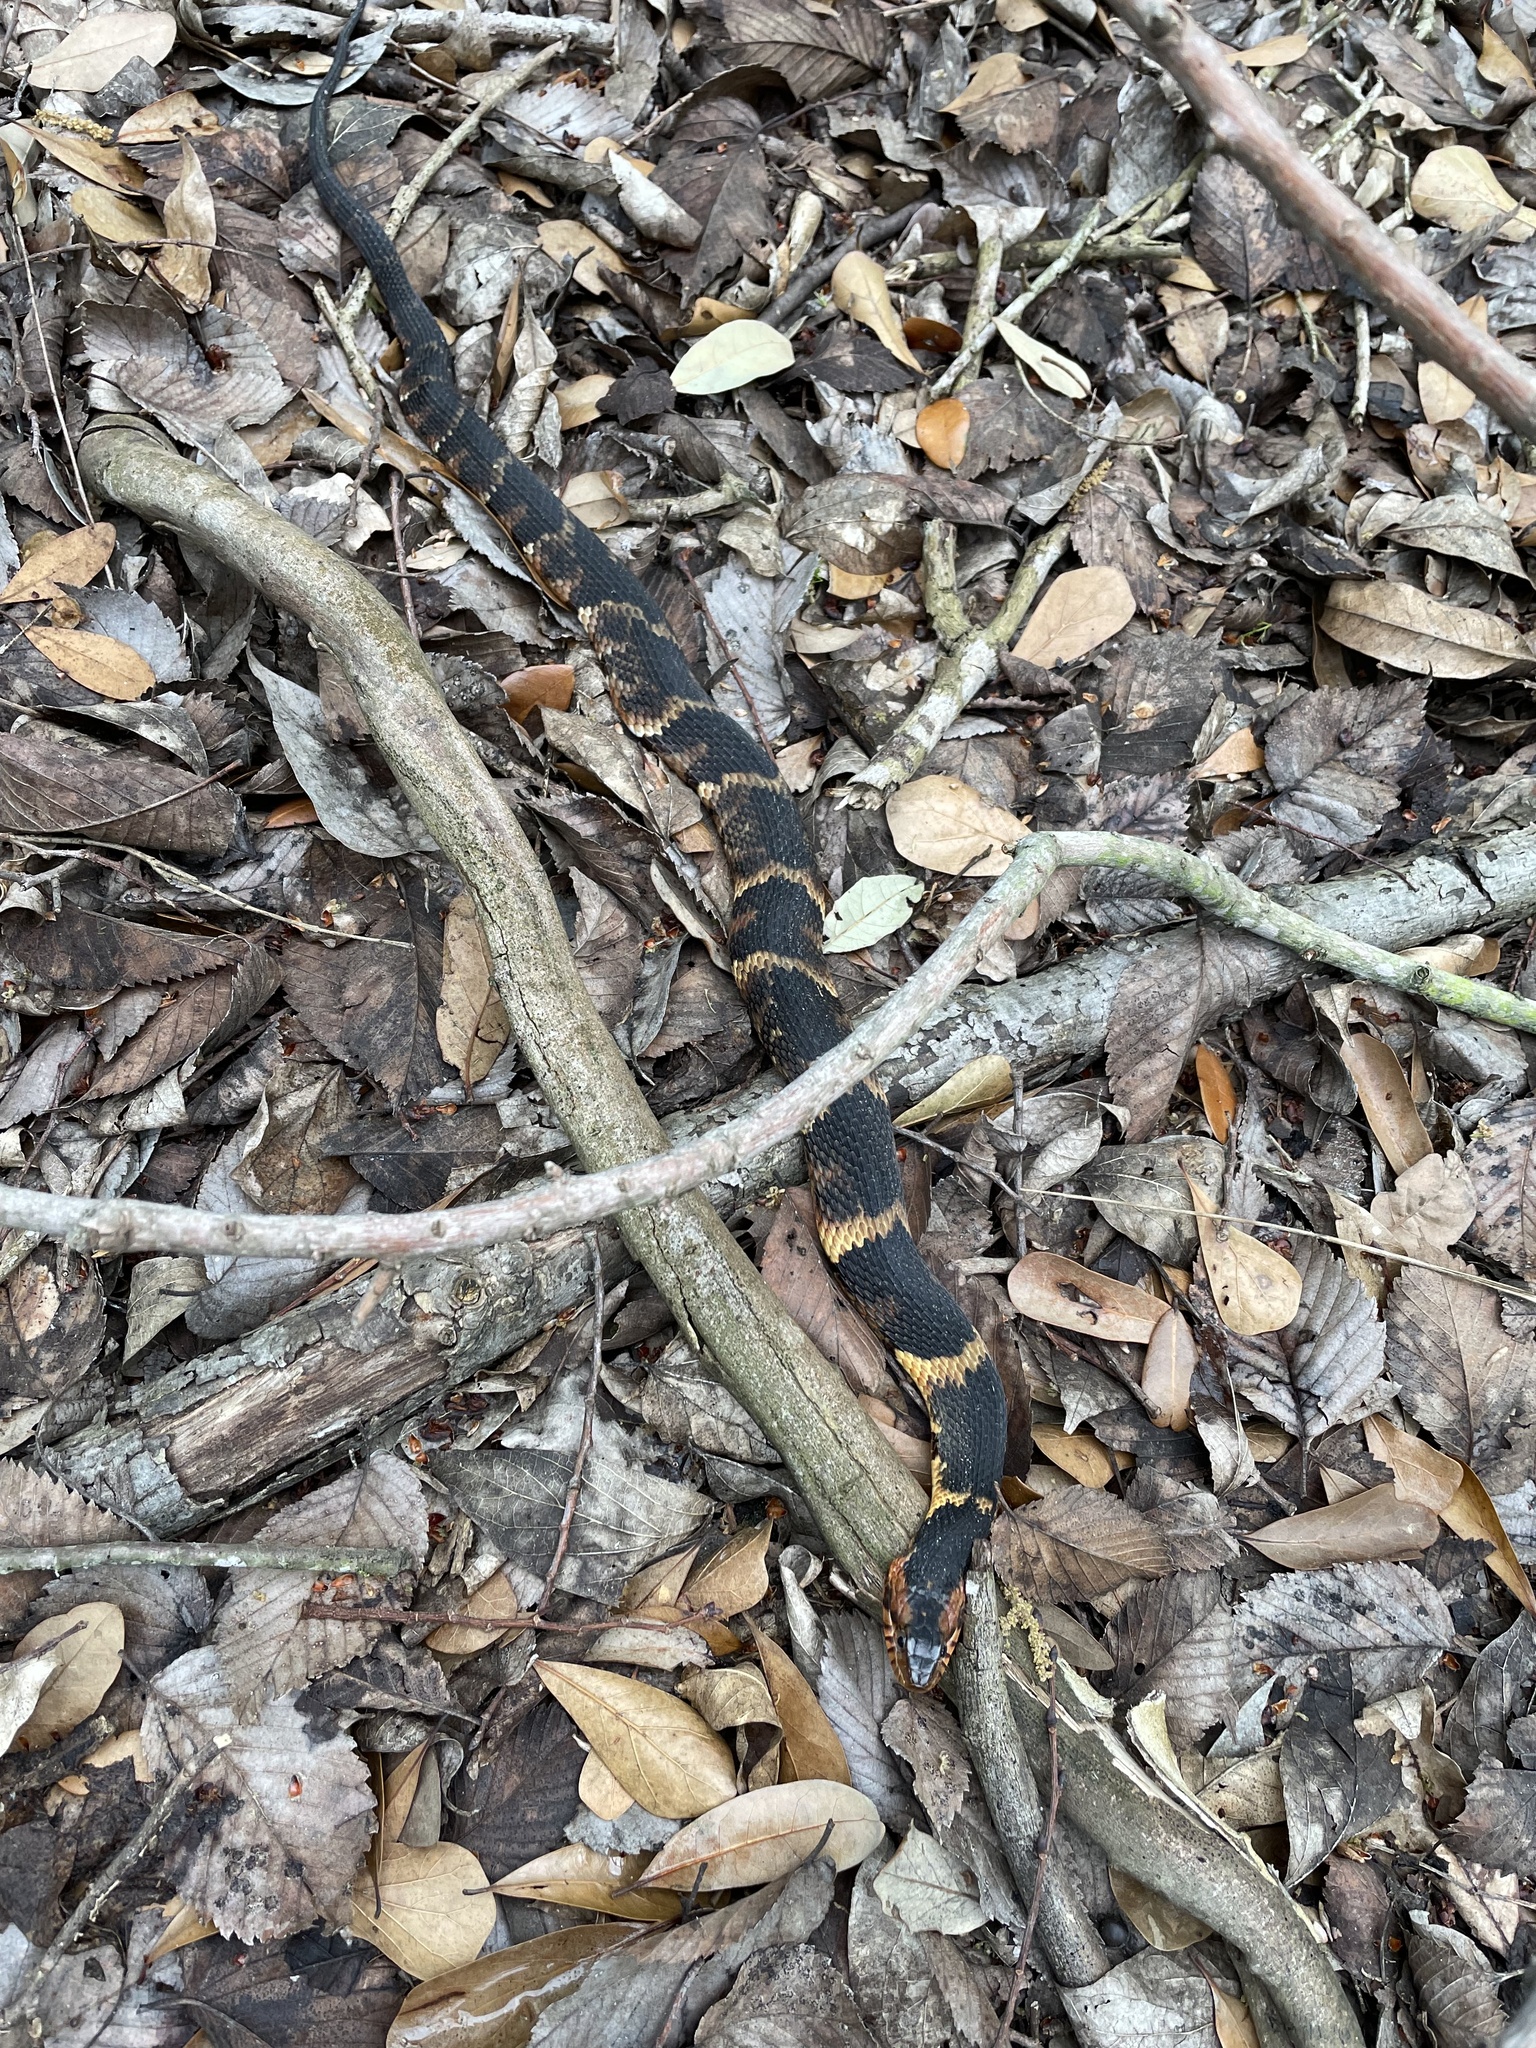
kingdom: Animalia
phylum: Chordata
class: Squamata
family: Colubridae
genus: Nerodia
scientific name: Nerodia fasciata
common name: Southern water snake
